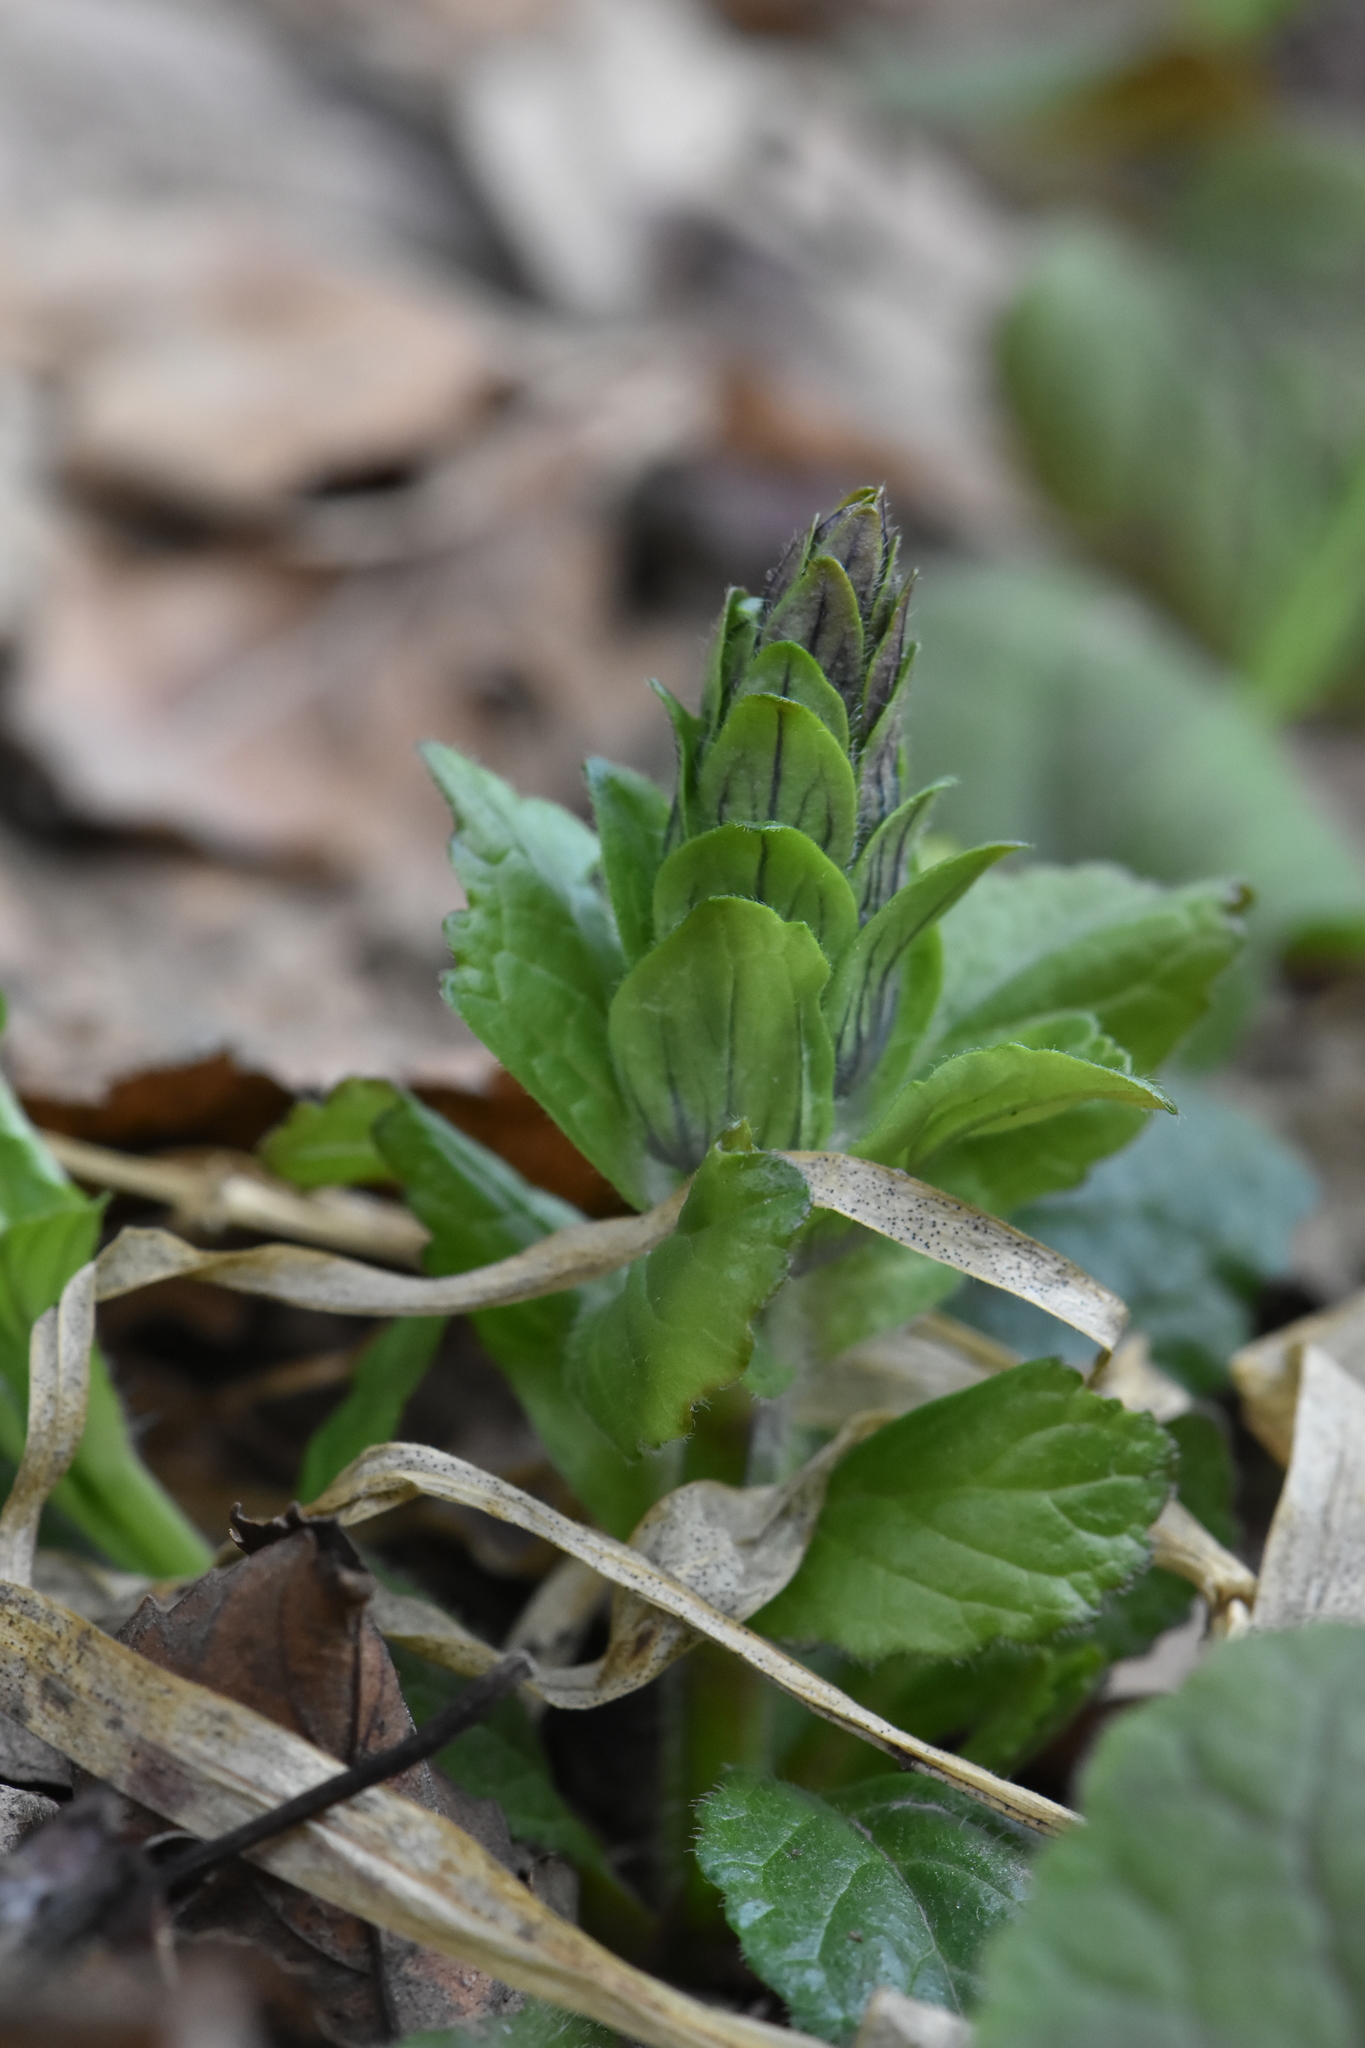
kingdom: Plantae
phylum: Tracheophyta
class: Magnoliopsida
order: Lamiales
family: Lamiaceae
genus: Ajuga
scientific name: Ajuga reptans
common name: Bugle
